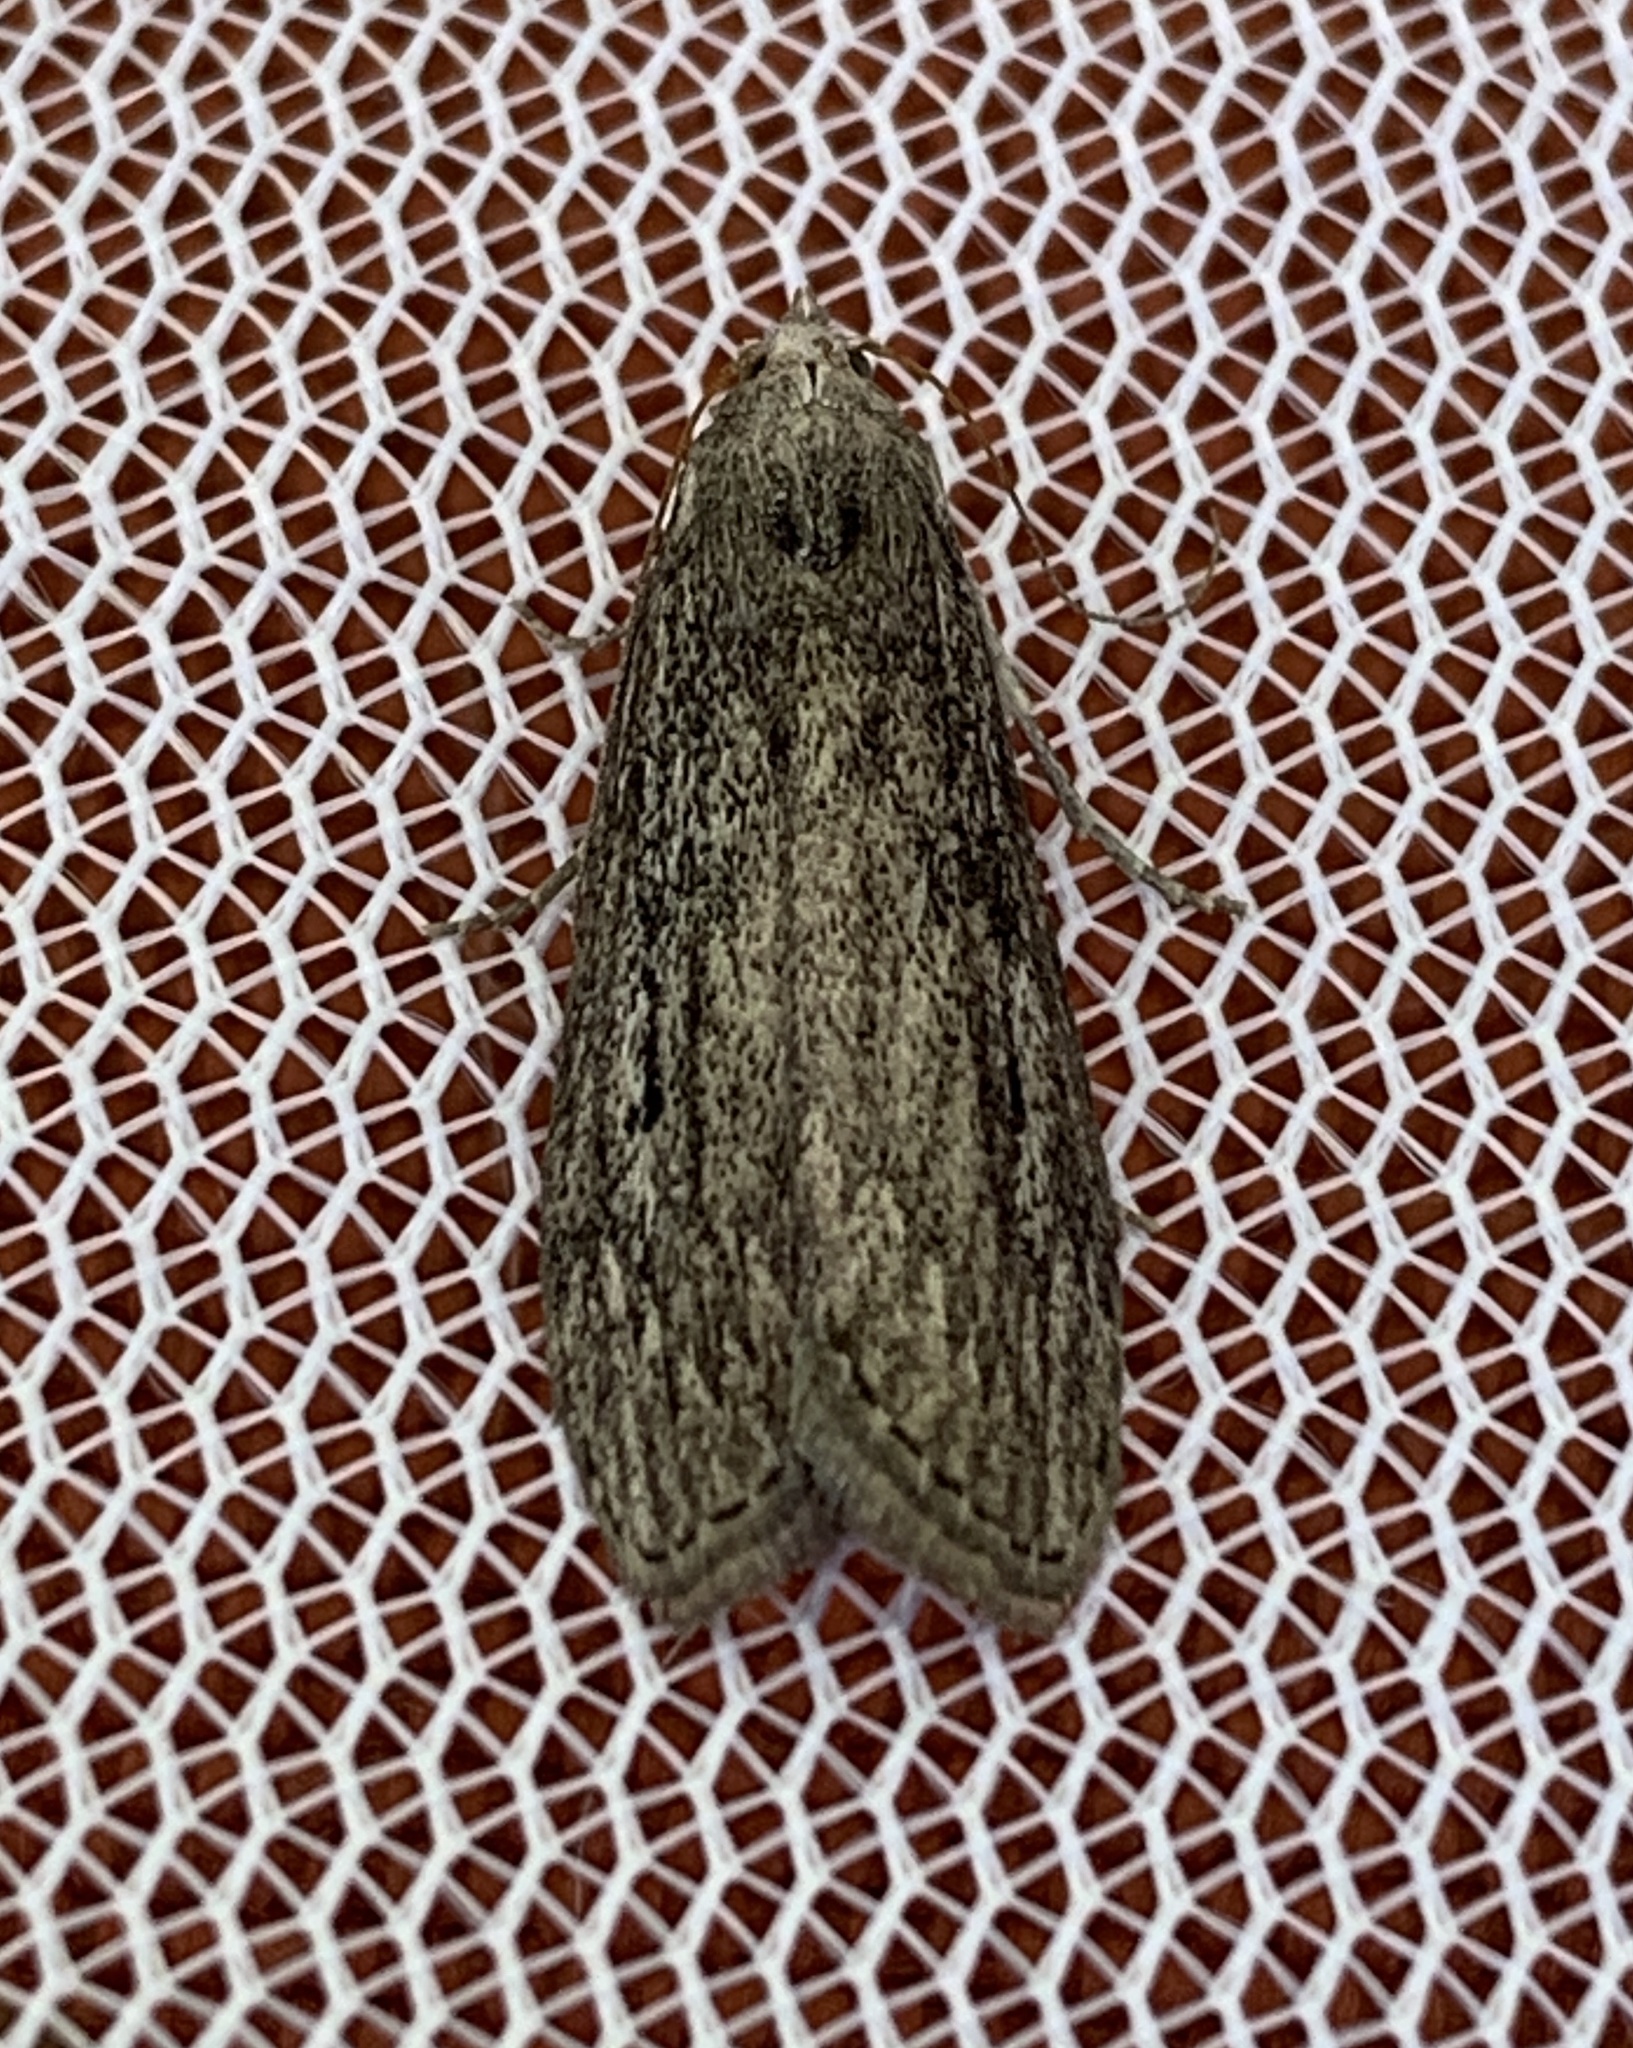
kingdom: Animalia
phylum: Arthropoda
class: Insecta
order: Lepidoptera
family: Pyralidae
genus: Aphomia
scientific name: Aphomia terrenella
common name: Terrenella bee moth
